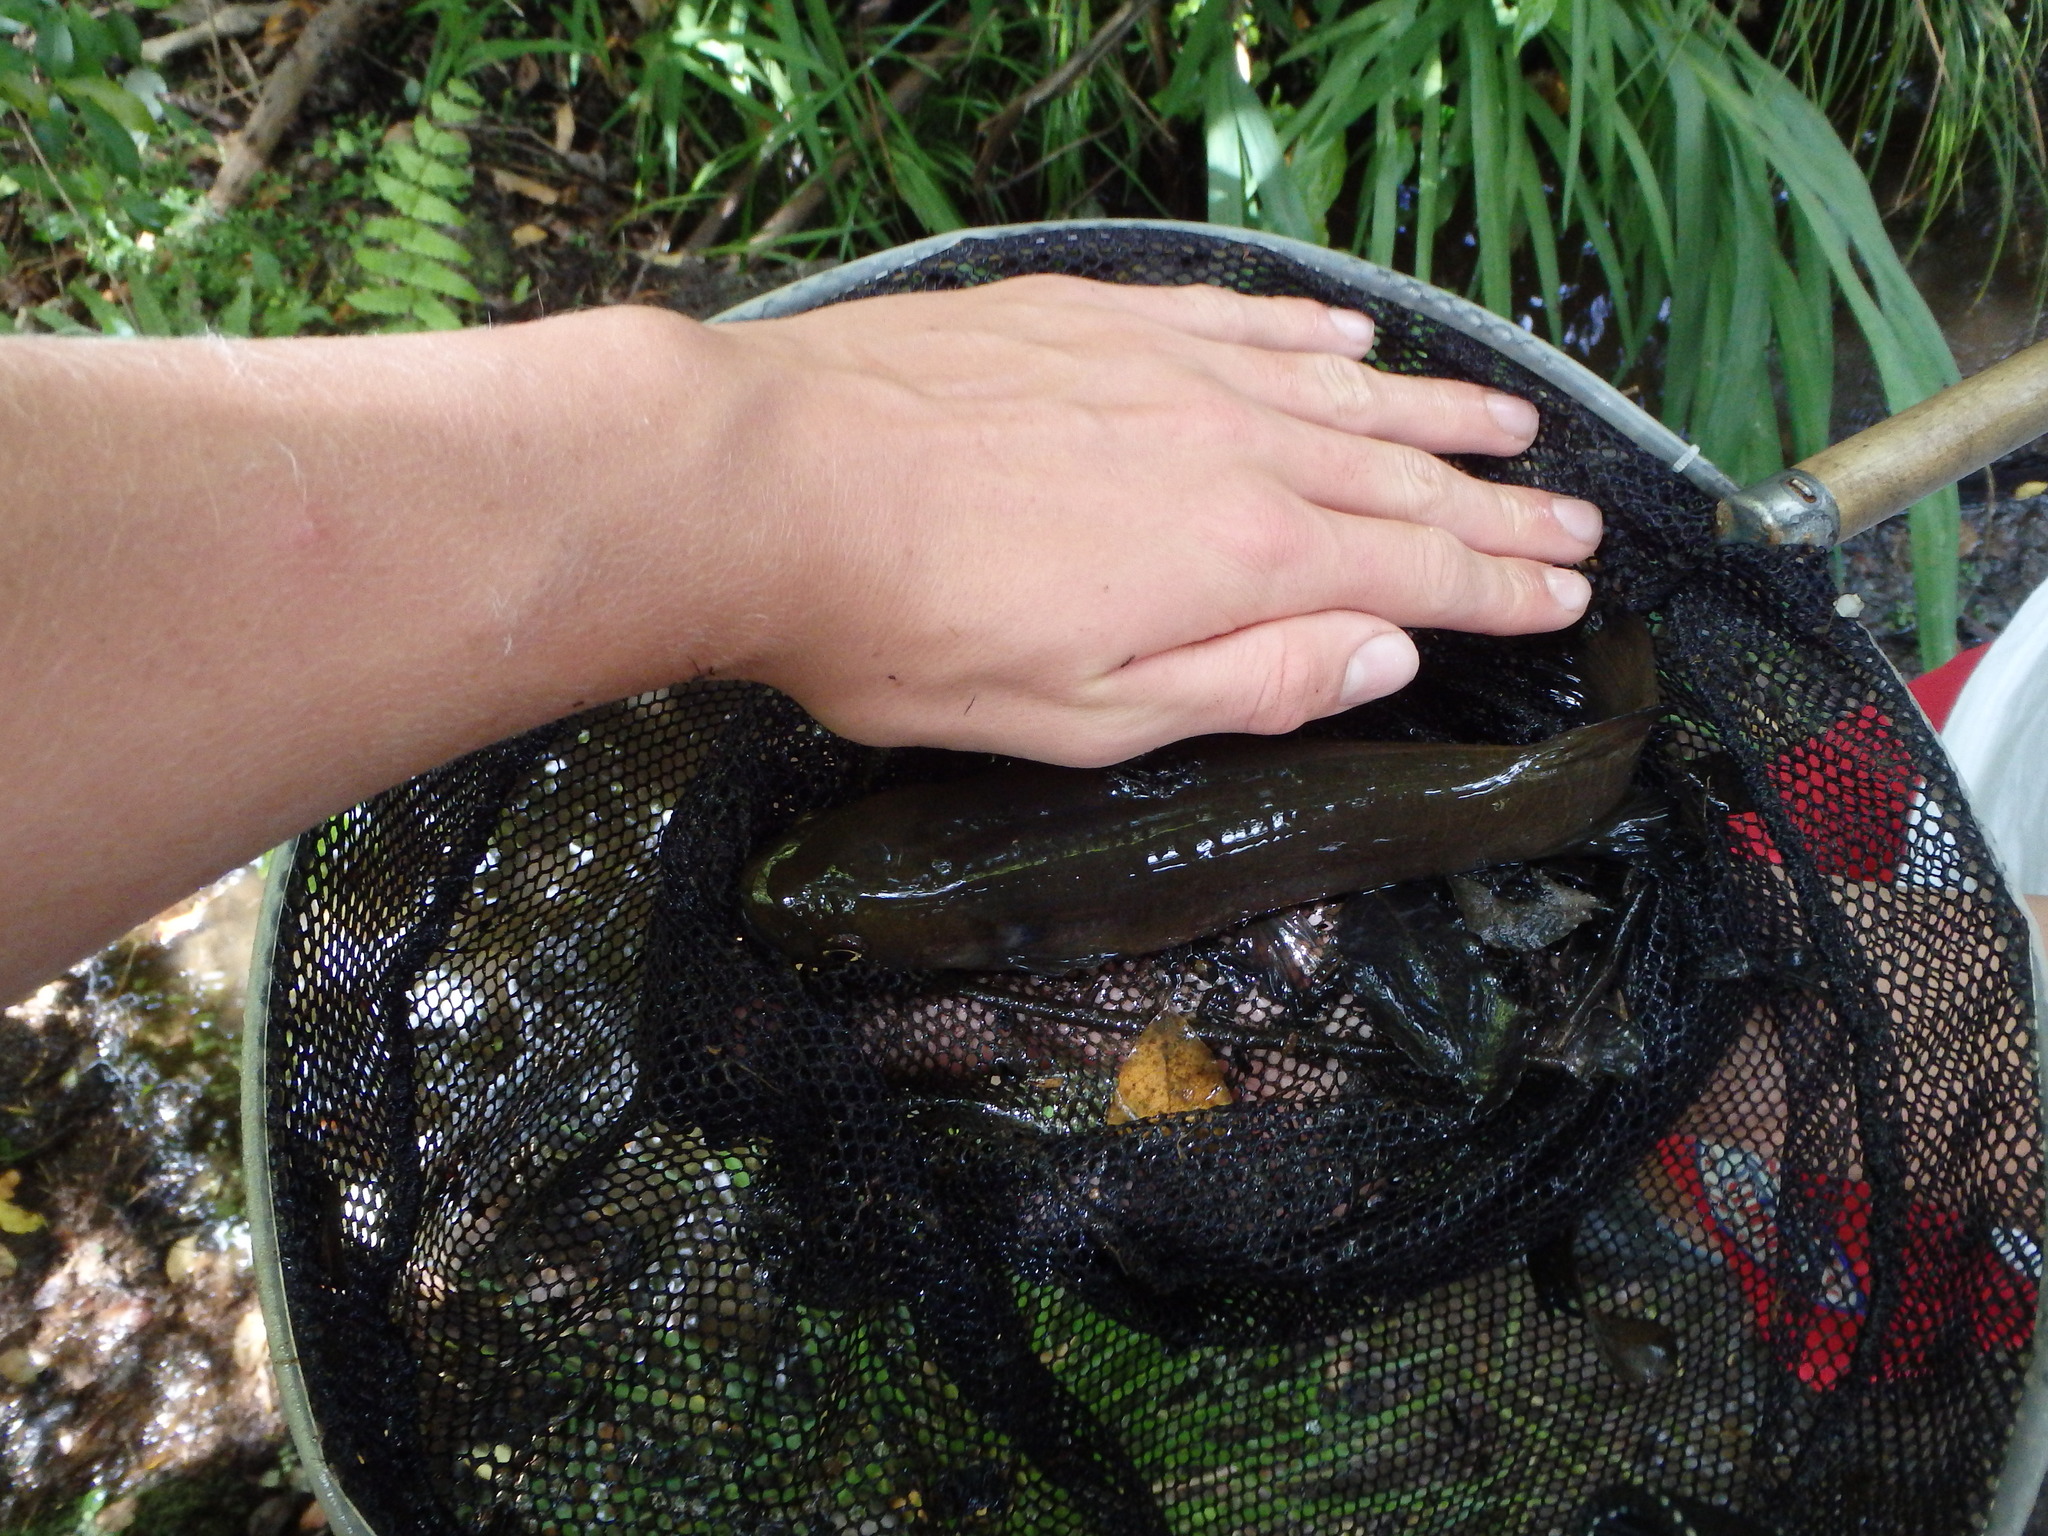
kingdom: Animalia
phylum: Chordata
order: Osmeriformes
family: Galaxiidae
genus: Galaxias
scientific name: Galaxias fasciatus
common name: Banded kokopu
